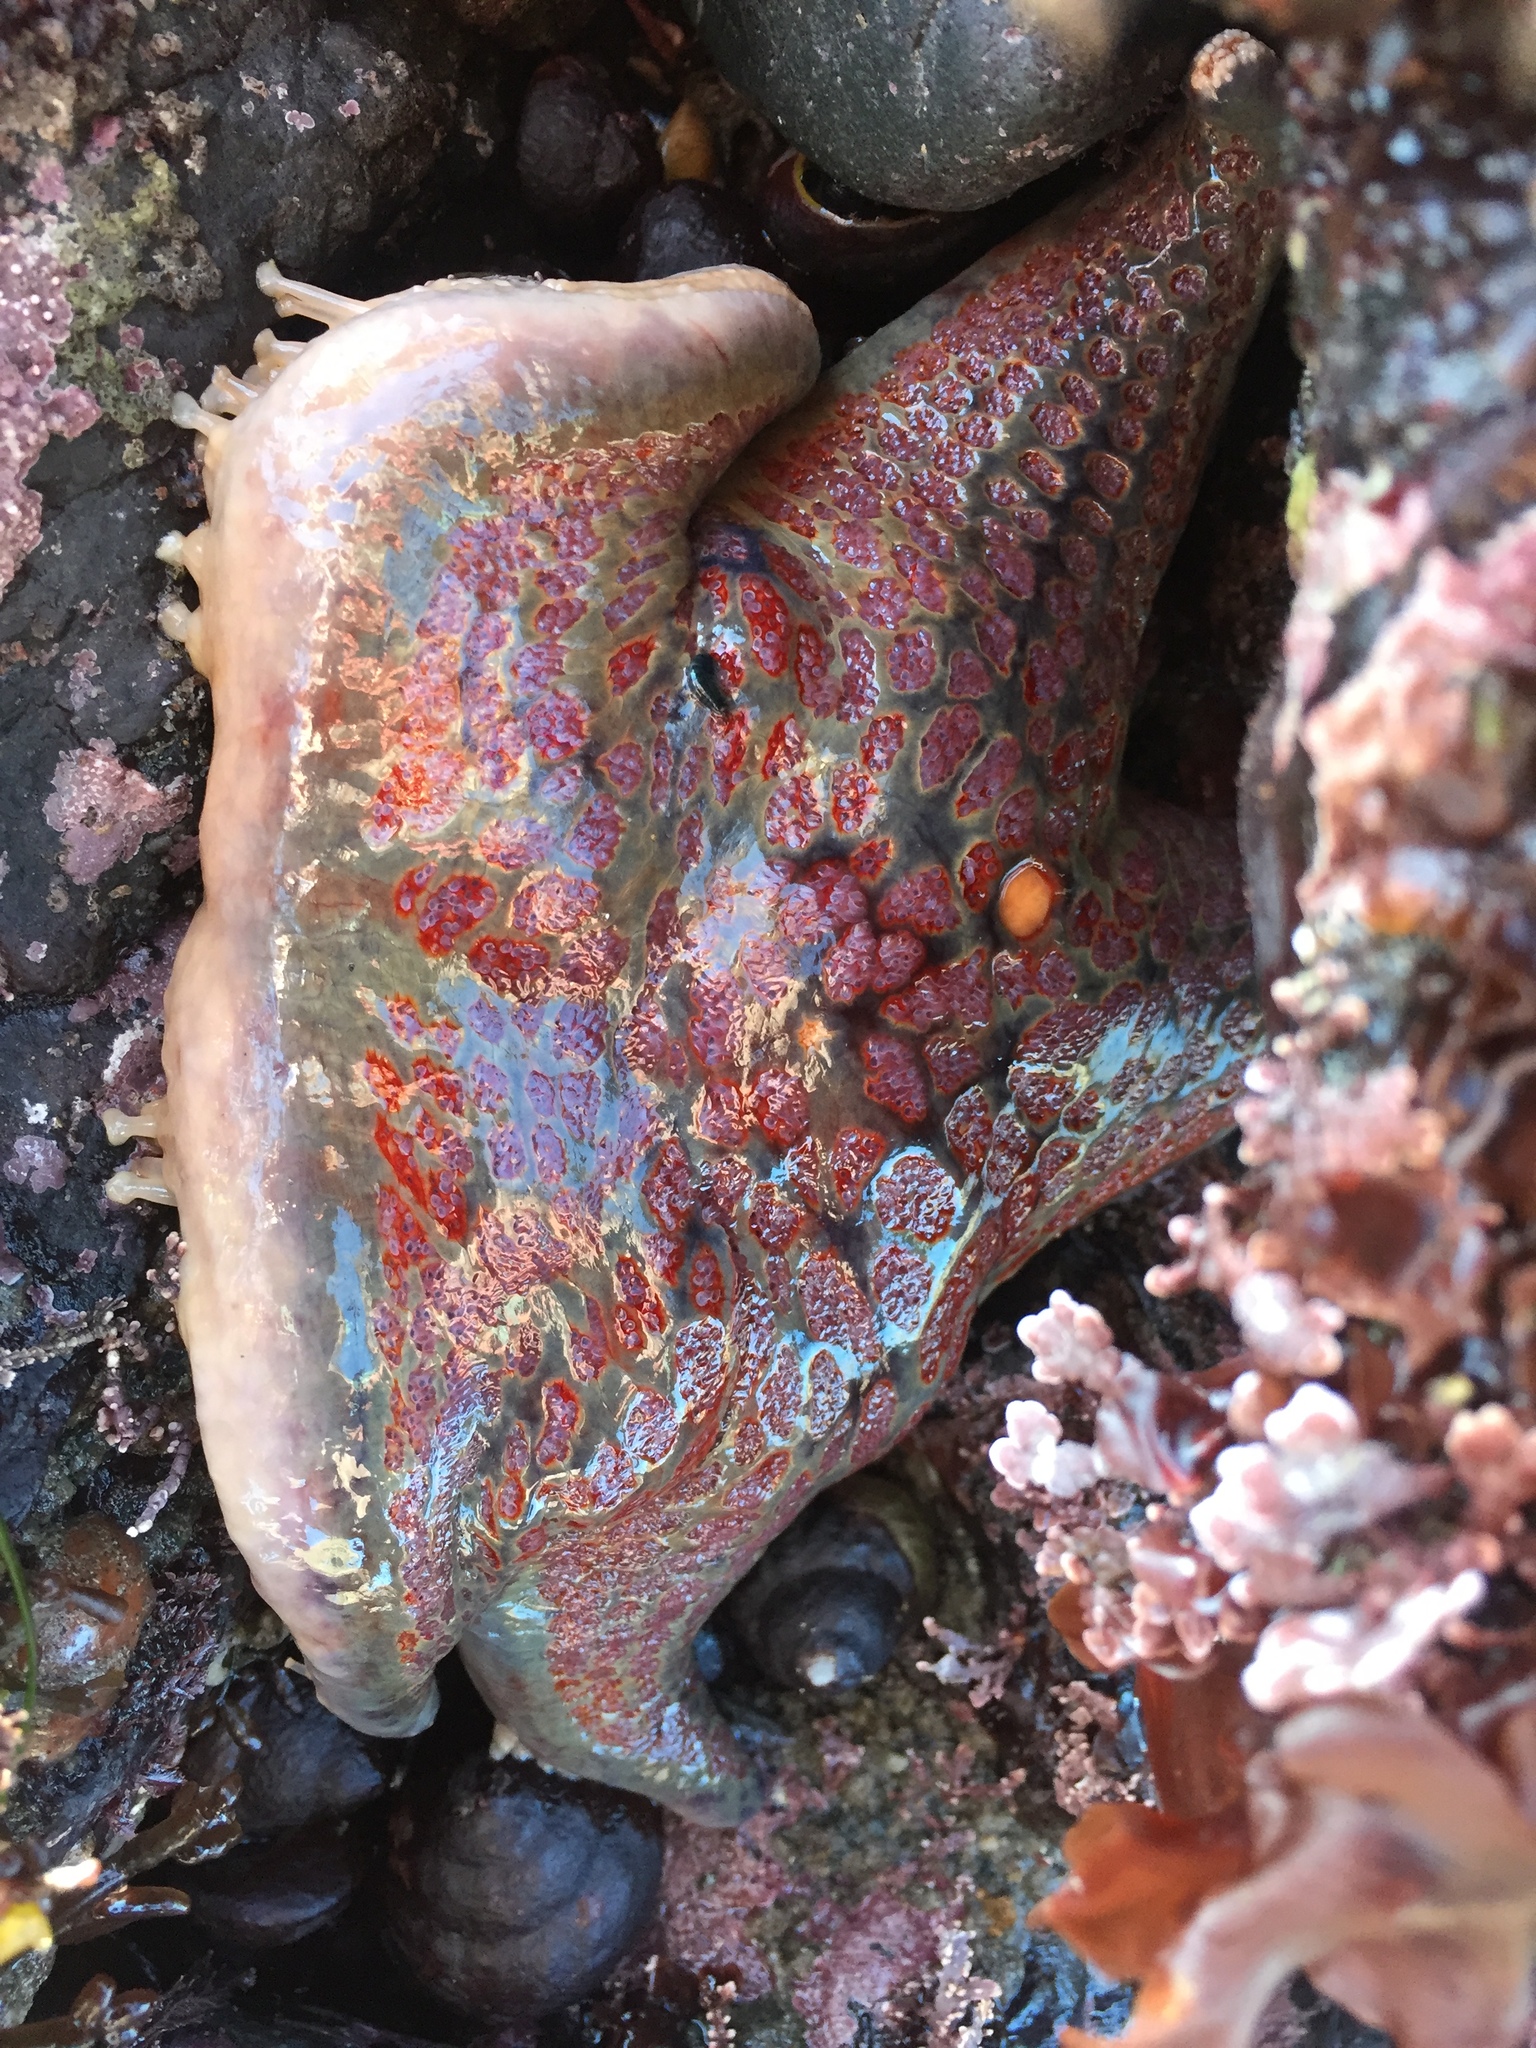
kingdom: Animalia
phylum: Echinodermata
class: Asteroidea
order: Valvatida
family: Asteropseidae
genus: Dermasterias
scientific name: Dermasterias imbricata
